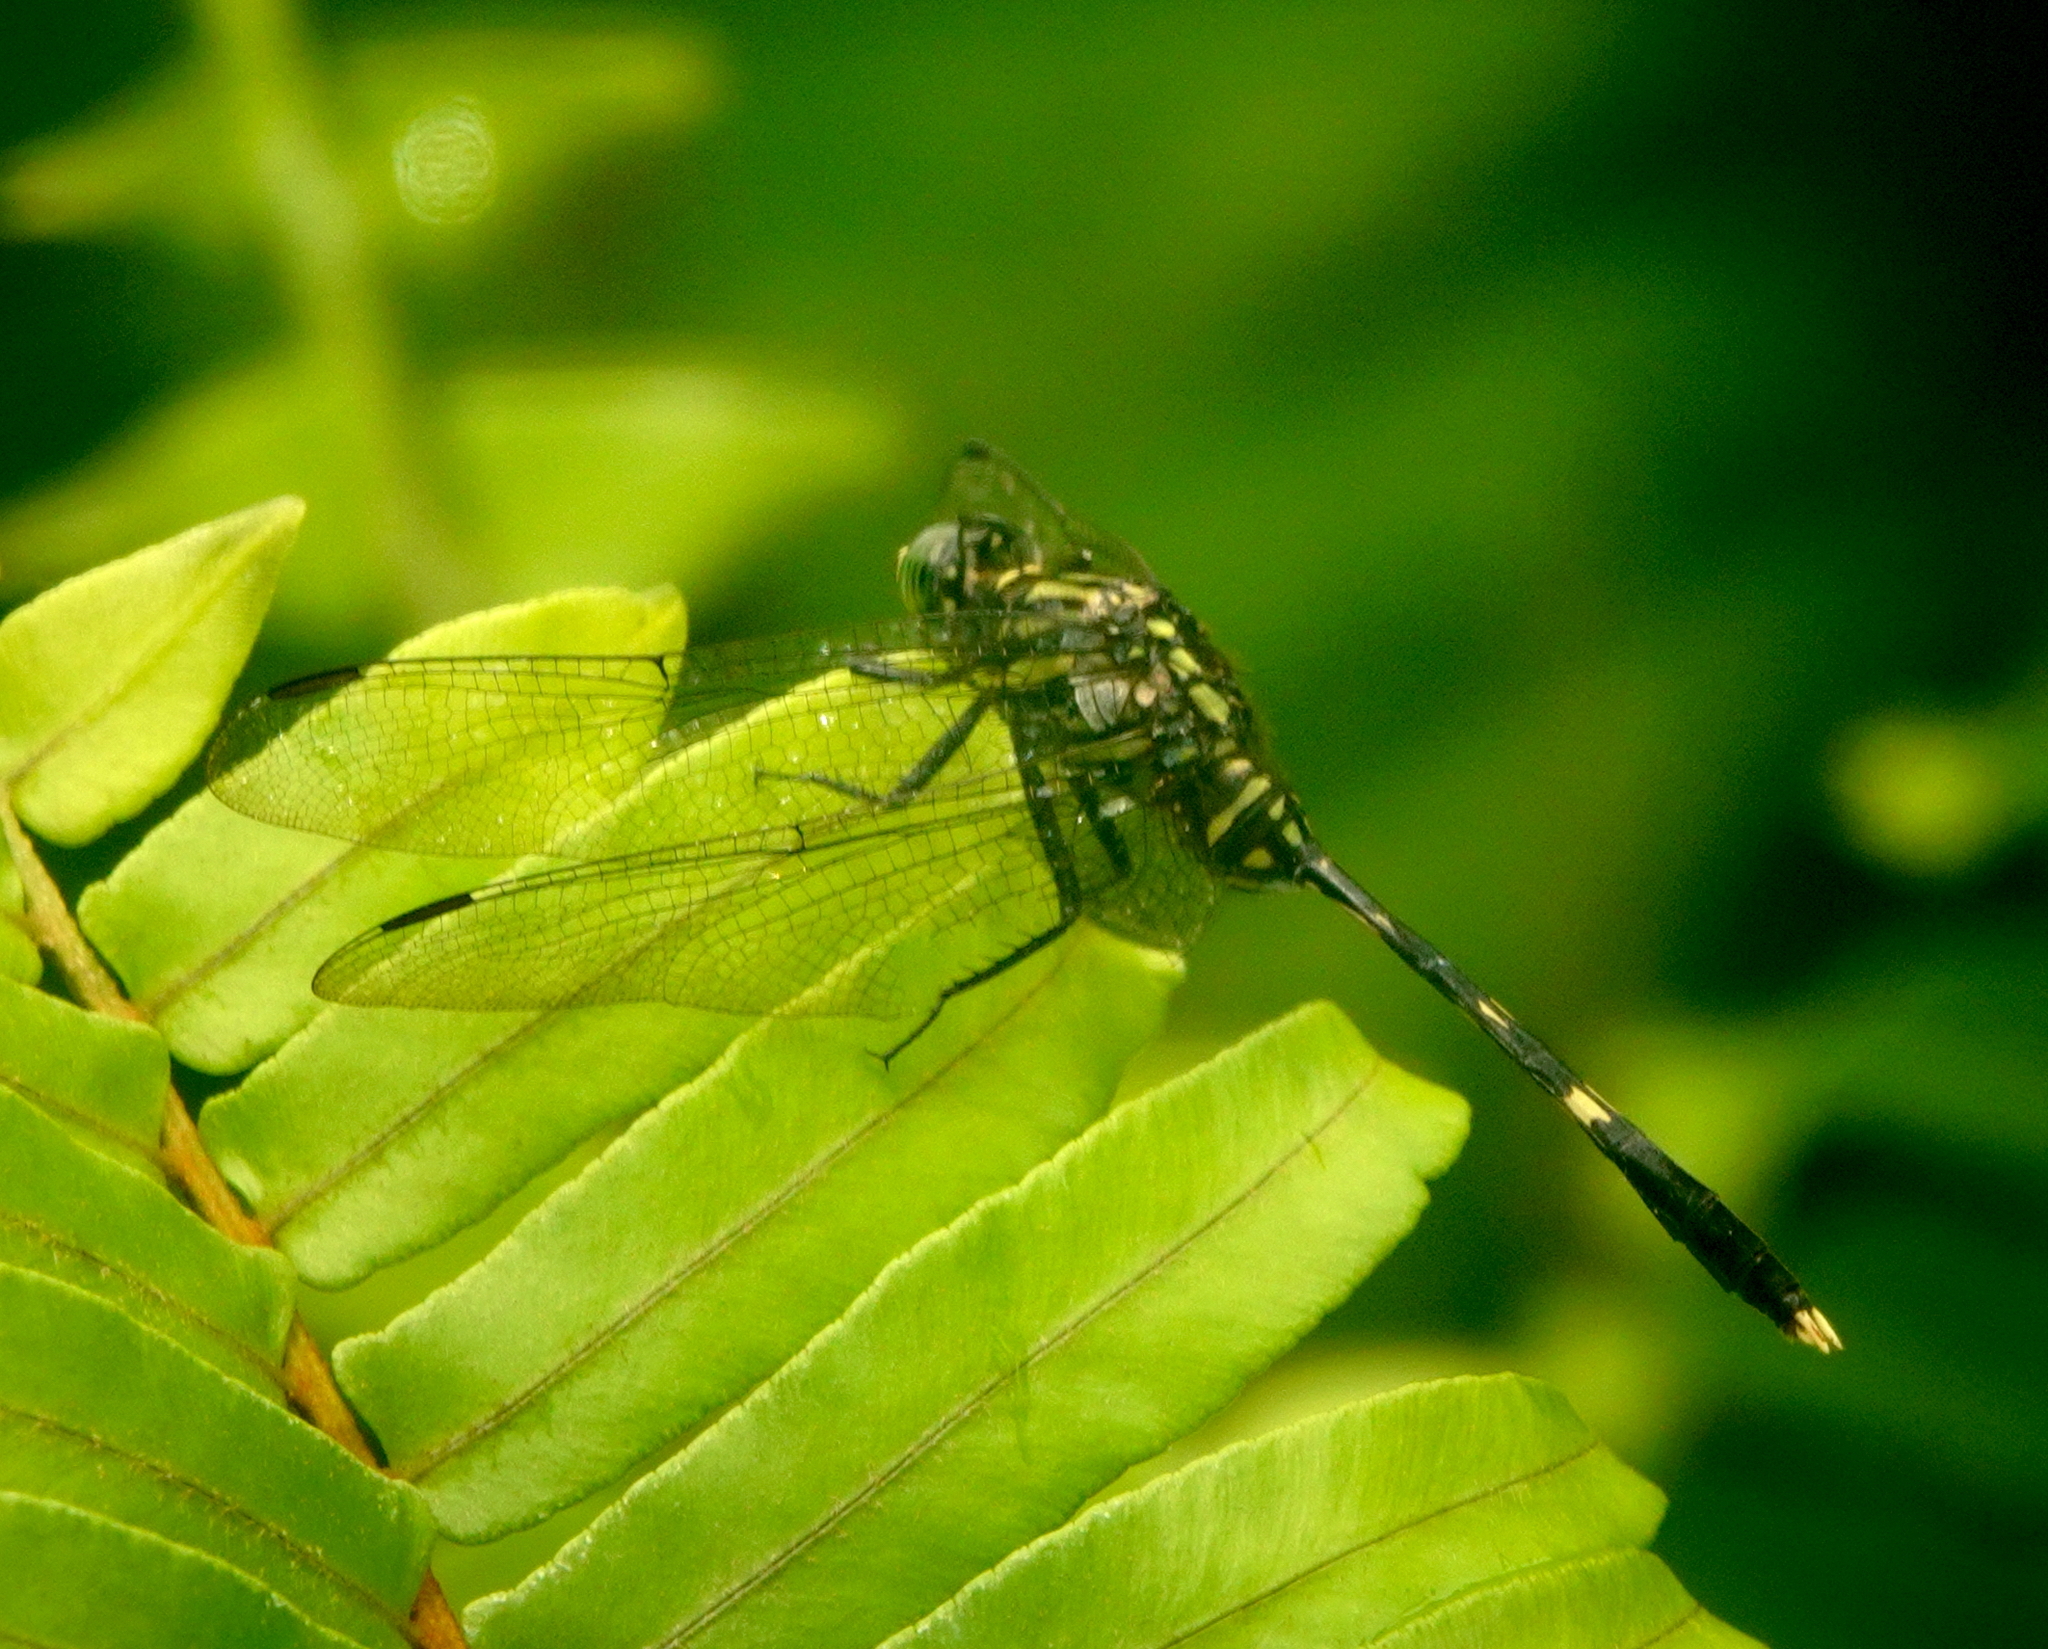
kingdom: Animalia
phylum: Arthropoda
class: Insecta
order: Odonata
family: Libellulidae
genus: Orthetrum
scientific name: Orthetrum serapia
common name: Green skimmer
